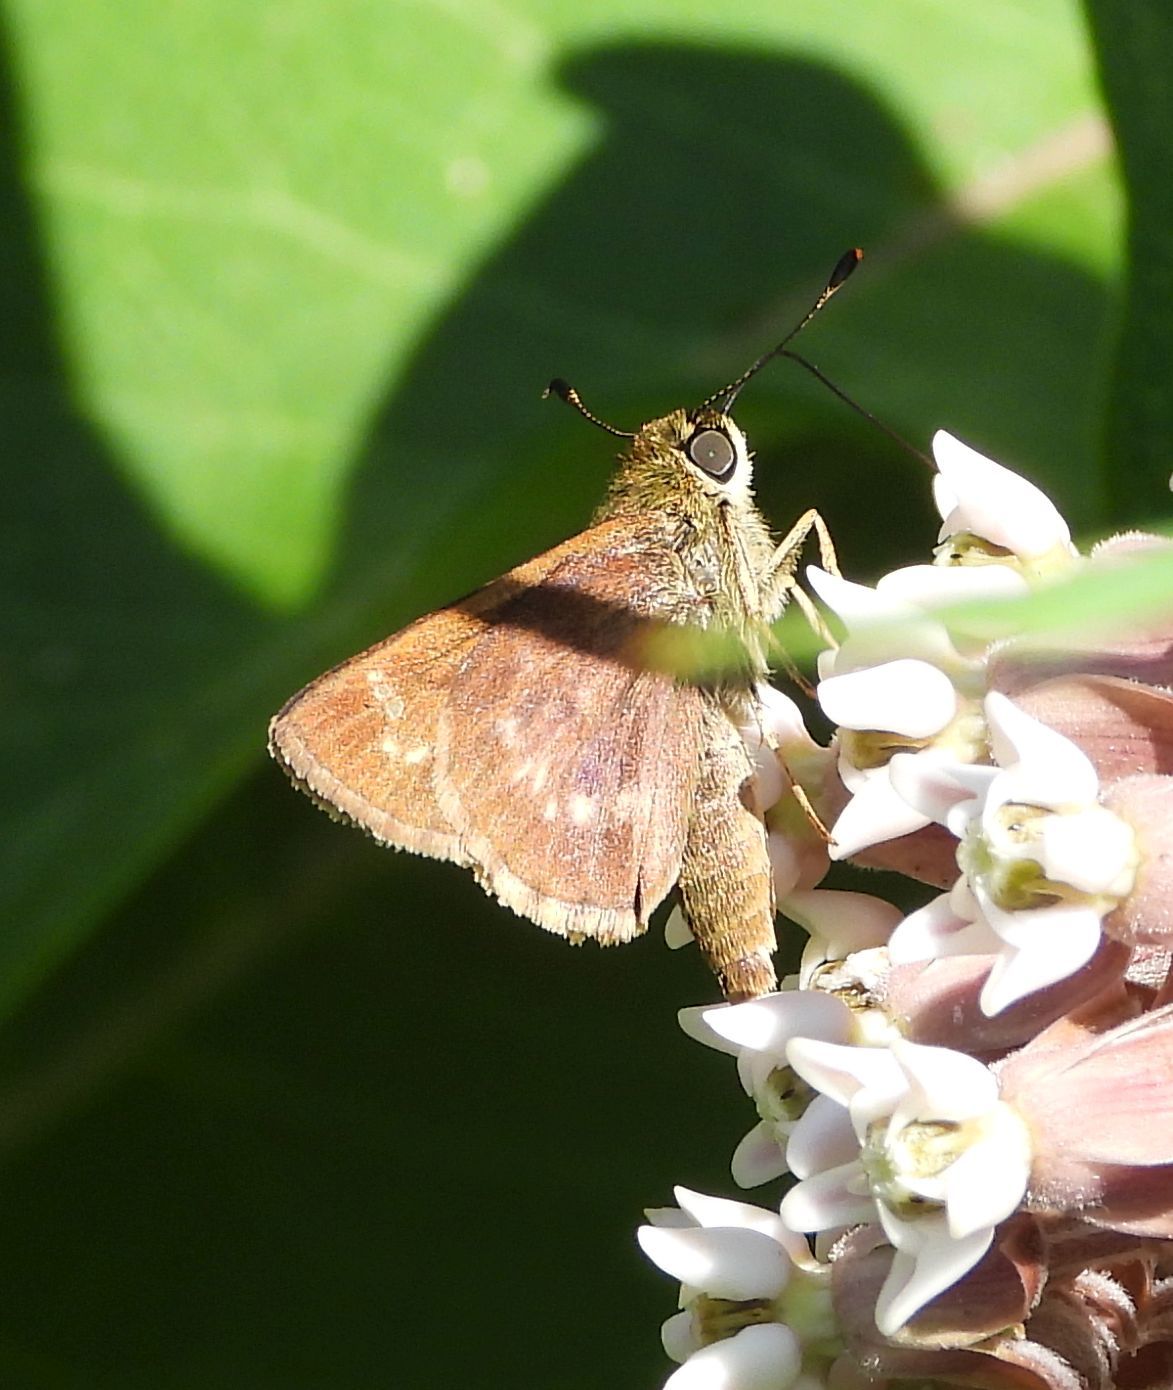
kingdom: Animalia
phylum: Arthropoda
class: Insecta
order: Lepidoptera
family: Hesperiidae
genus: Vernia
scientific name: Vernia verna
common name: Little glassywing
